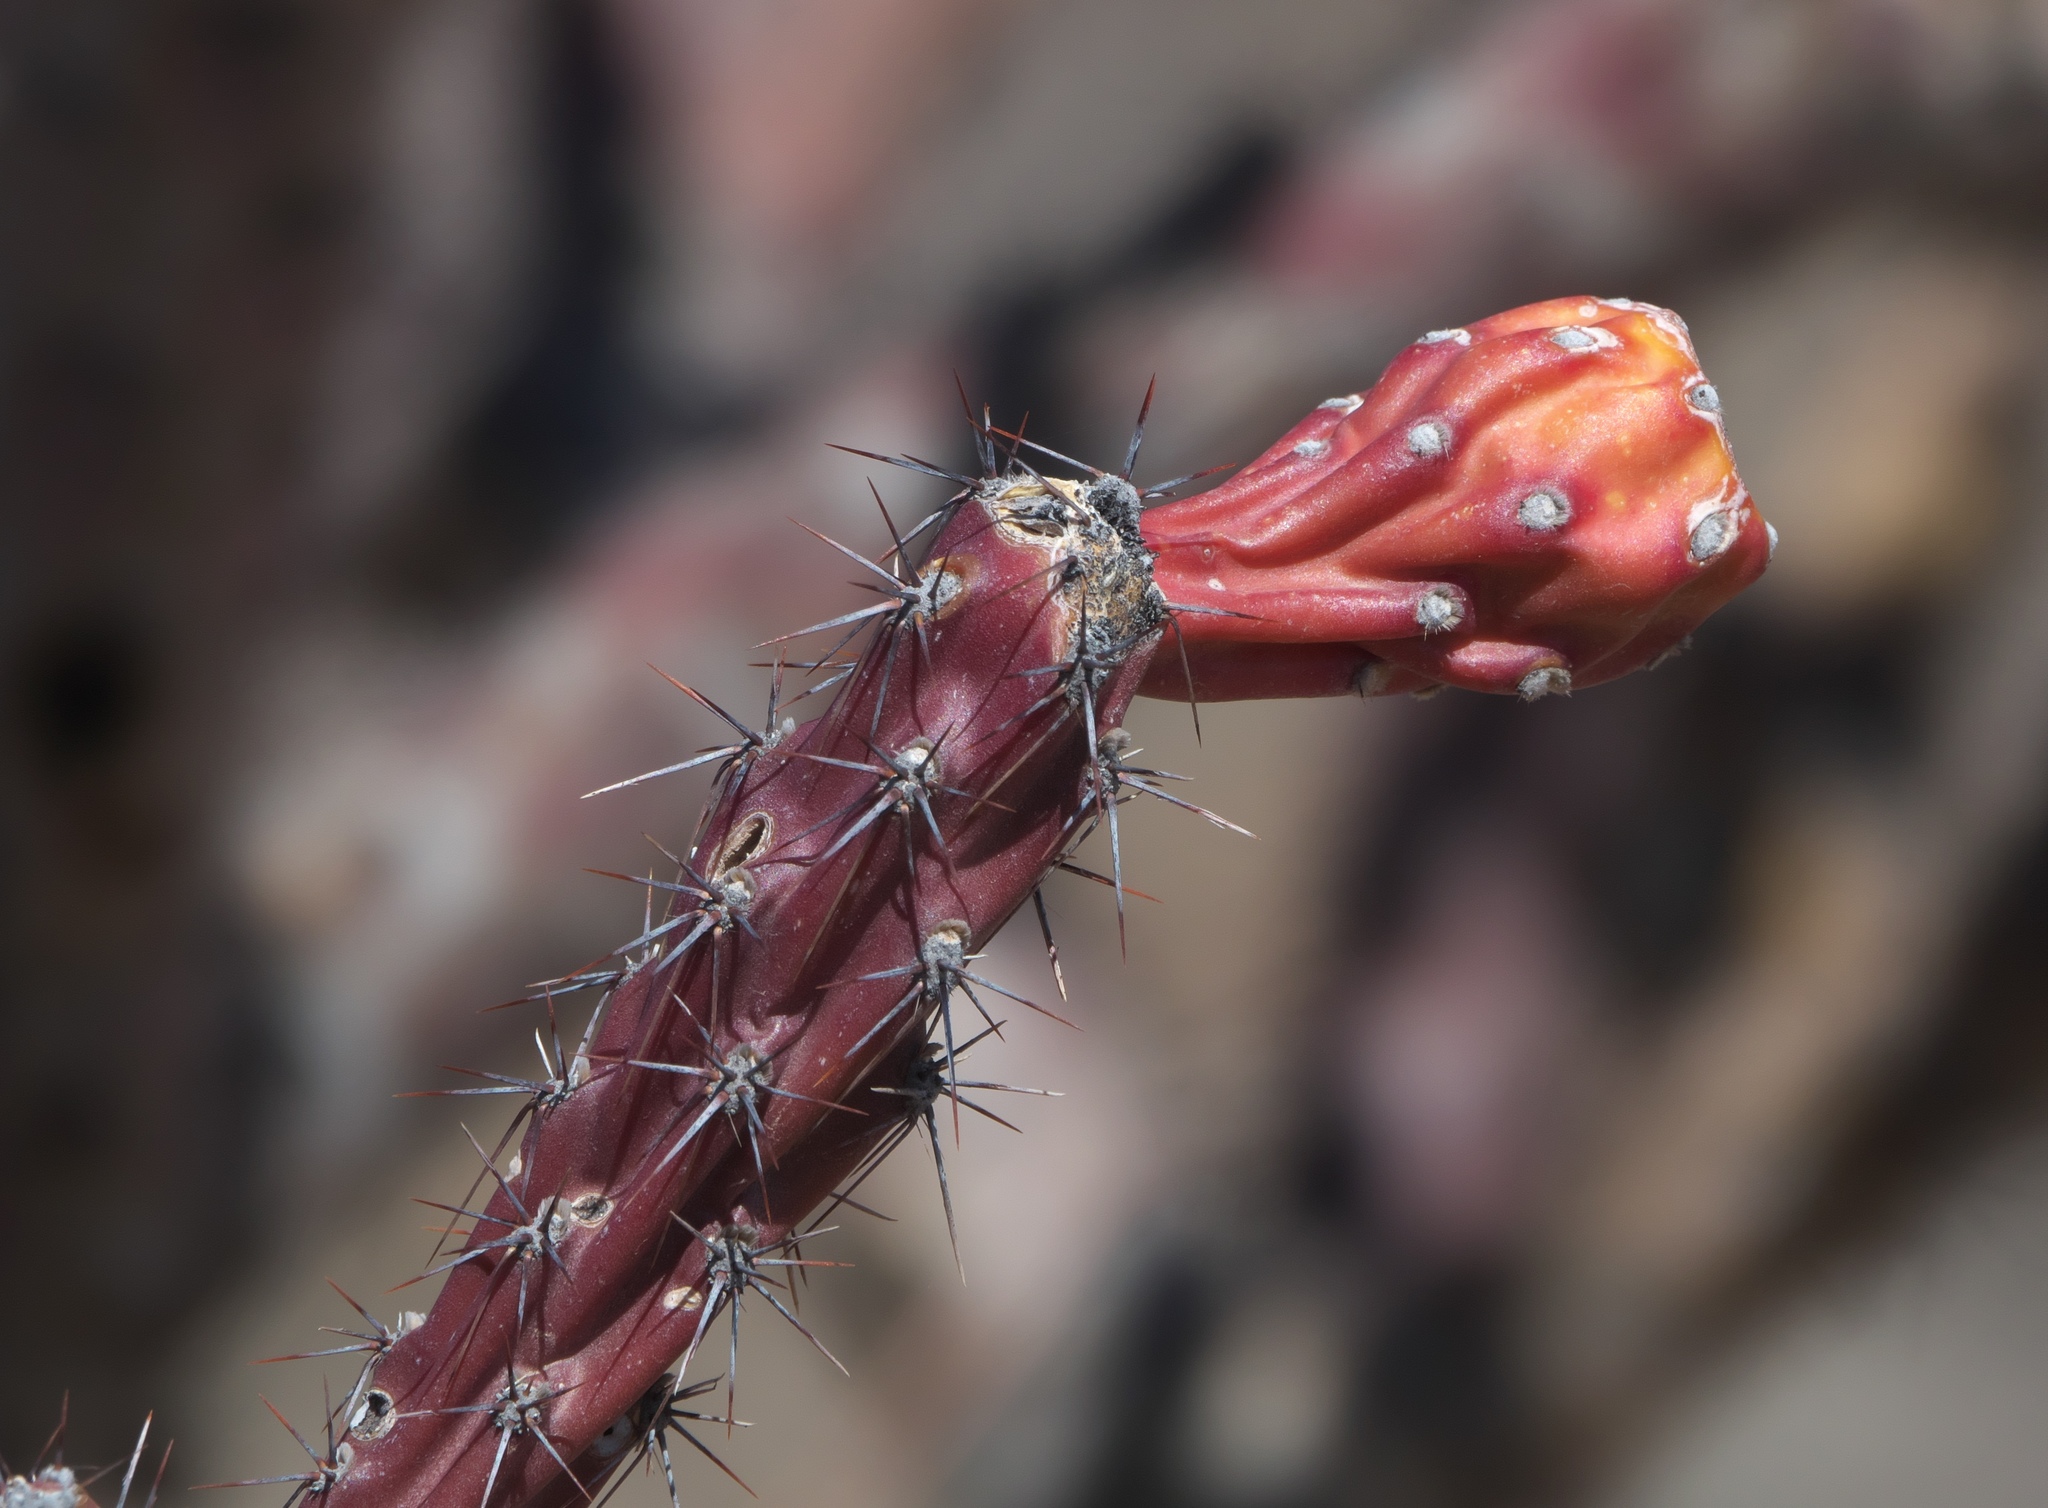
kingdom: Plantae
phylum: Tracheophyta
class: Magnoliopsida
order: Caryophyllales
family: Cactaceae
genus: Cylindropuntia
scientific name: Cylindropuntia thurberi
